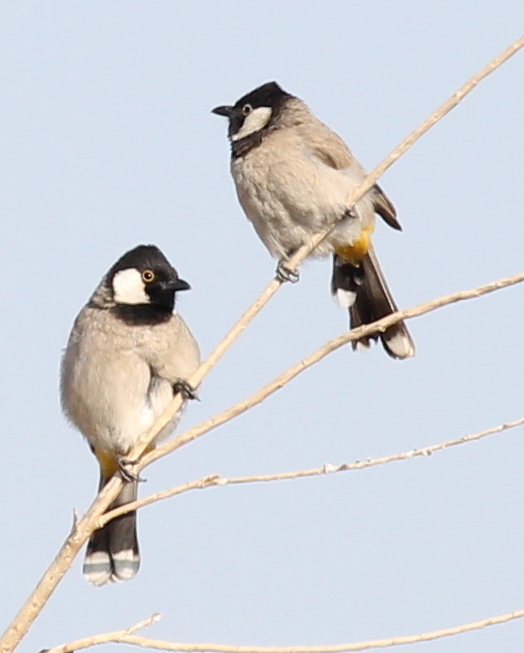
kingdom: Animalia
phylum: Chordata
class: Aves
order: Passeriformes
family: Pycnonotidae
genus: Pycnonotus
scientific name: Pycnonotus leucotis
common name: White-eared bulbul
